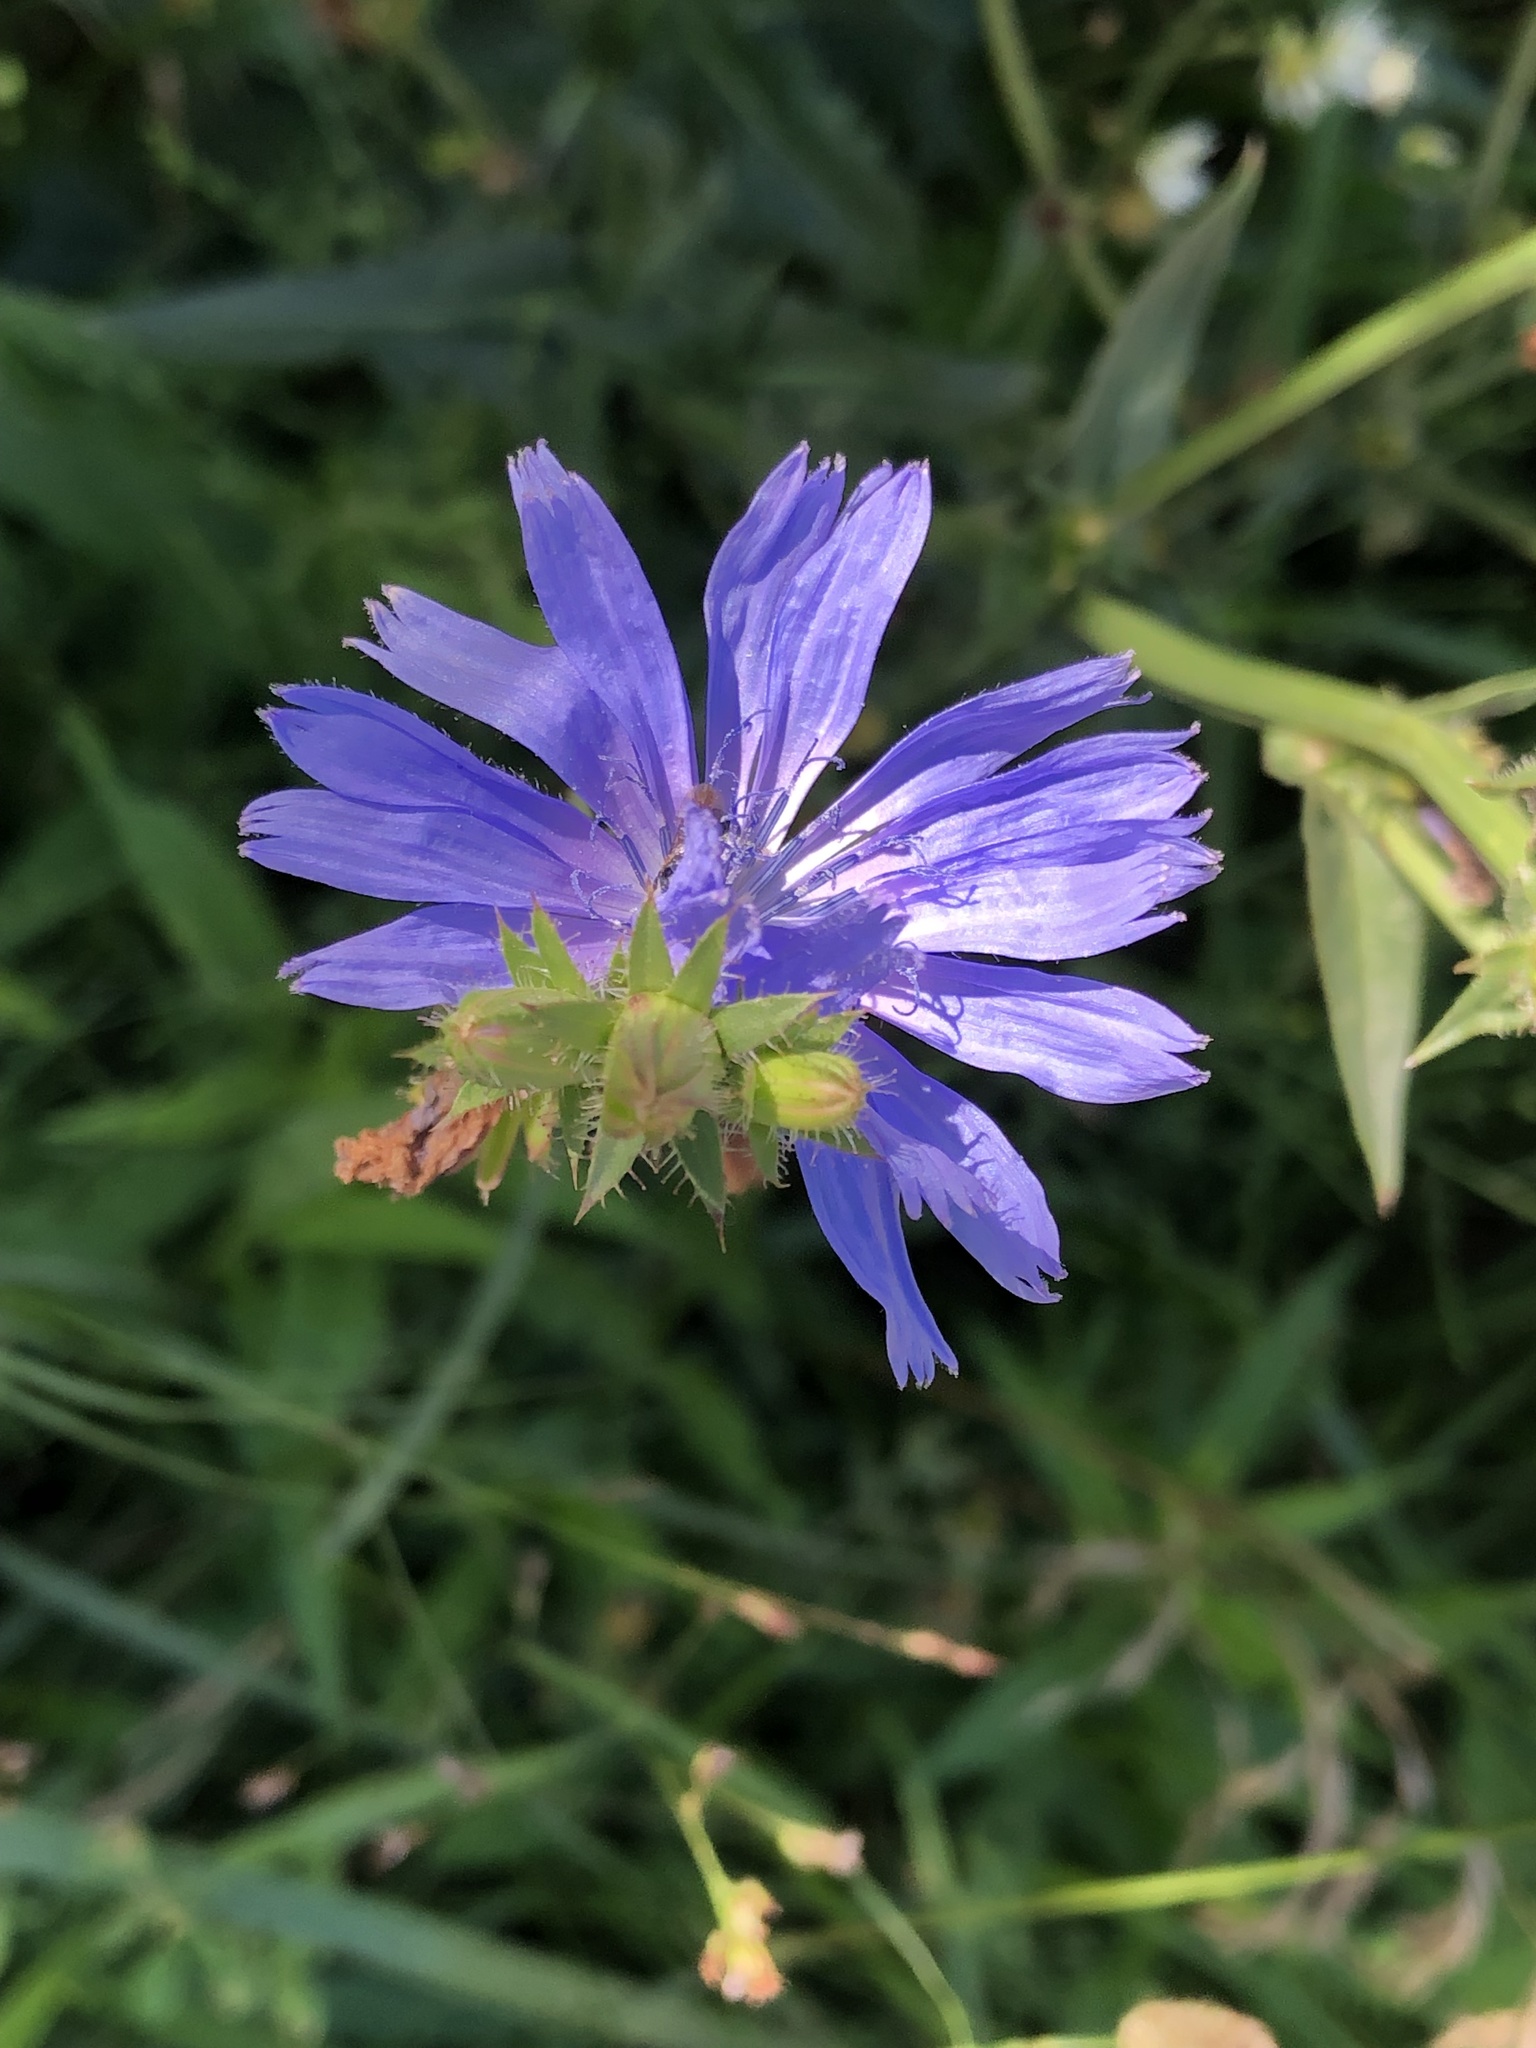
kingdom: Plantae
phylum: Tracheophyta
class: Magnoliopsida
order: Asterales
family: Asteraceae
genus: Cichorium
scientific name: Cichorium intybus
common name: Chicory
